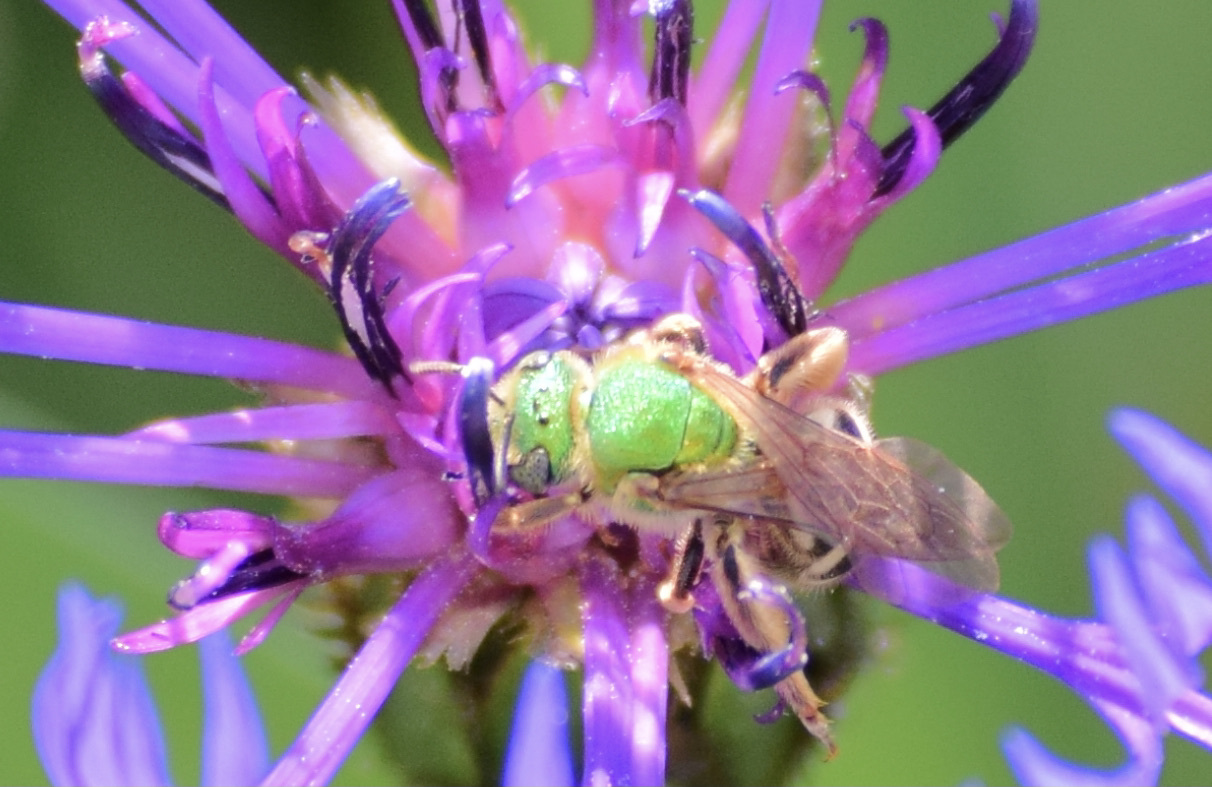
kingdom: Animalia
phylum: Arthropoda
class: Insecta
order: Hymenoptera
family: Halictidae
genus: Agapostemon
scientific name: Agapostemon virescens
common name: Bicolored striped sweat bee
